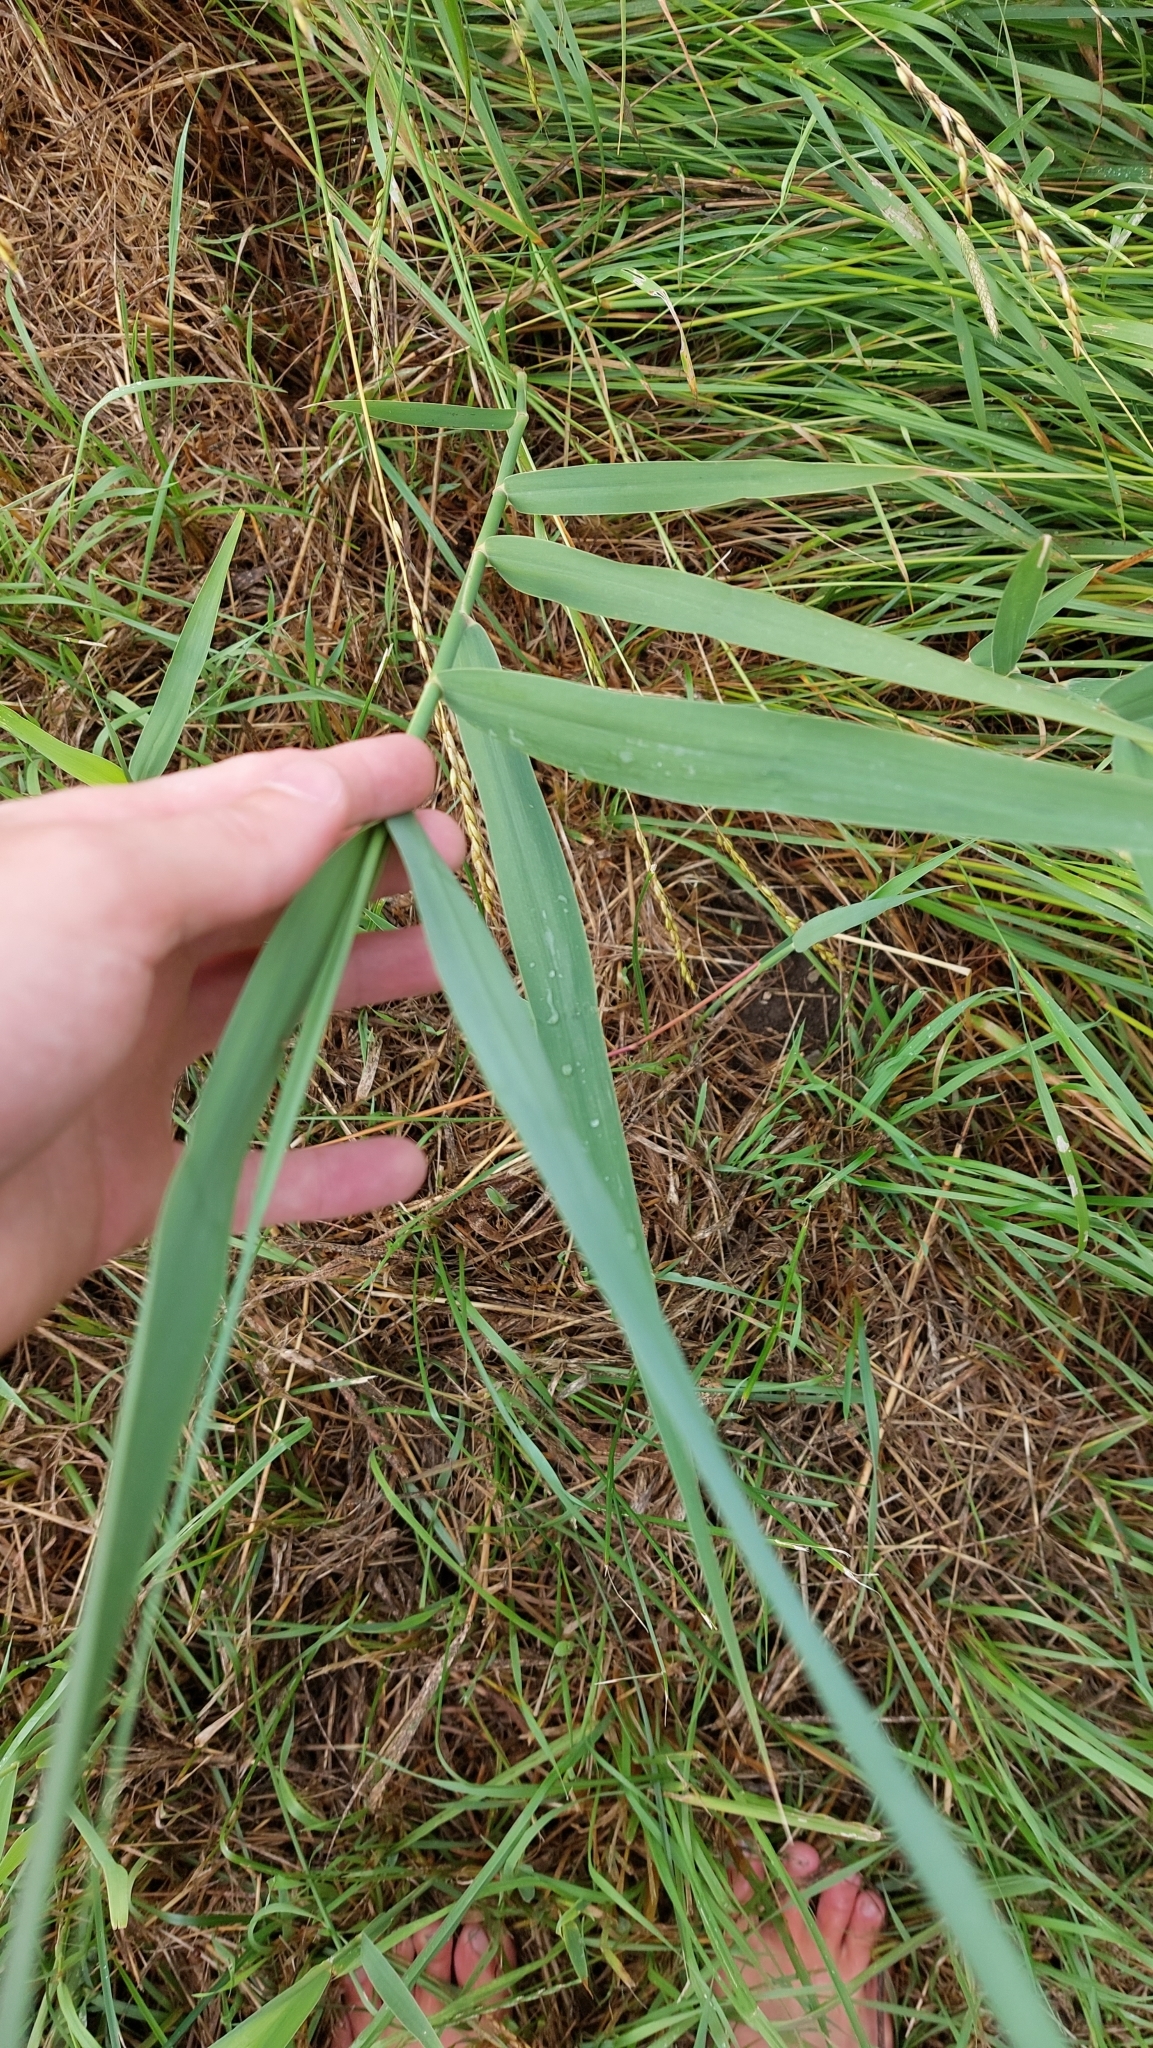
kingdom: Plantae
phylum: Tracheophyta
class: Liliopsida
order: Poales
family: Poaceae
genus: Phragmites
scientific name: Phragmites australis
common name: Common reed
